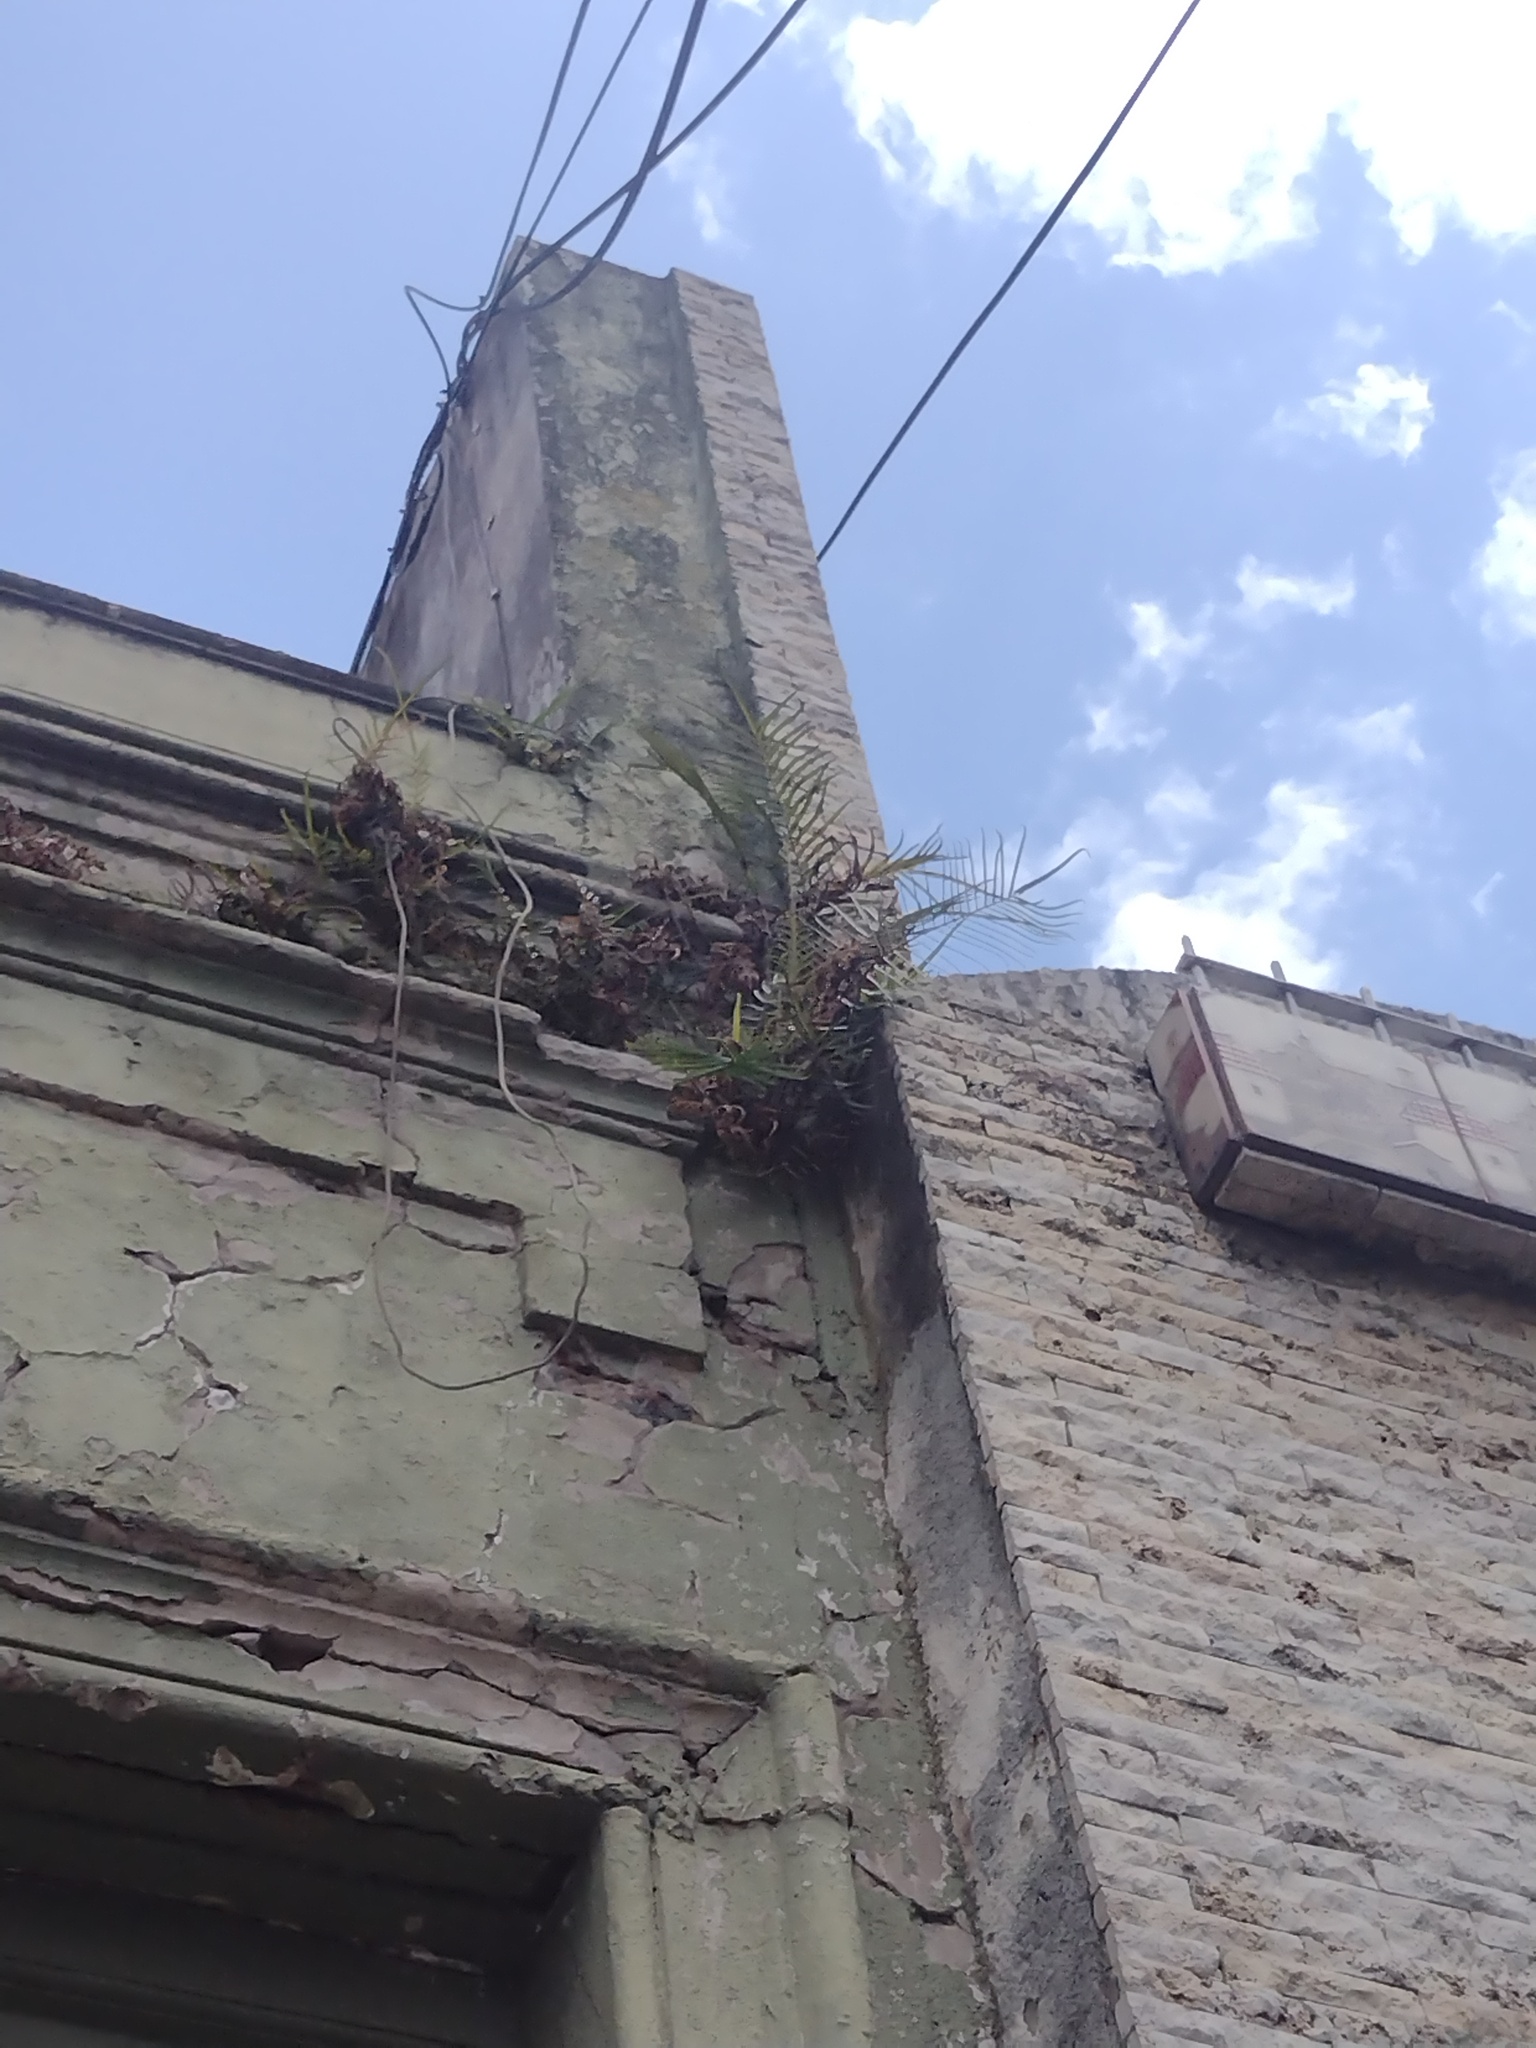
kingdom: Plantae
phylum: Tracheophyta
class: Polypodiopsida
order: Polypodiales
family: Pteridaceae
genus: Pteris
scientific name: Pteris vittata
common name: Ladder brake
